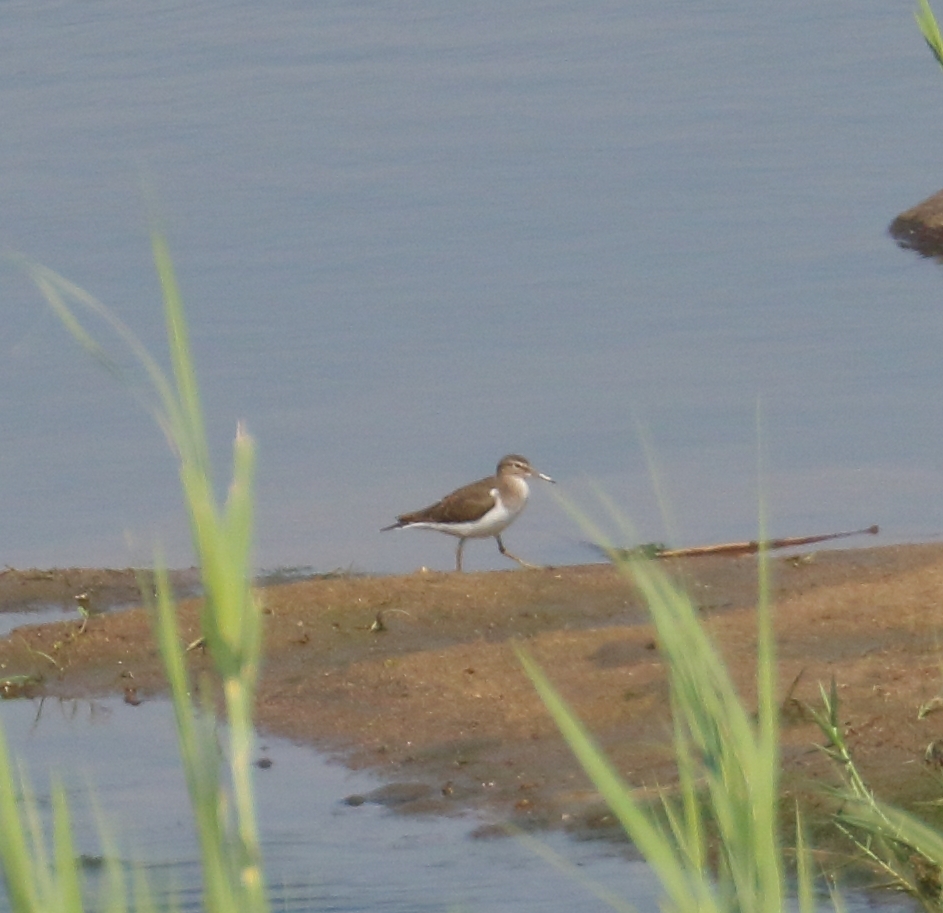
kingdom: Animalia
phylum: Chordata
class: Aves
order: Charadriiformes
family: Scolopacidae
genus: Actitis
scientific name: Actitis hypoleucos
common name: Common sandpiper
